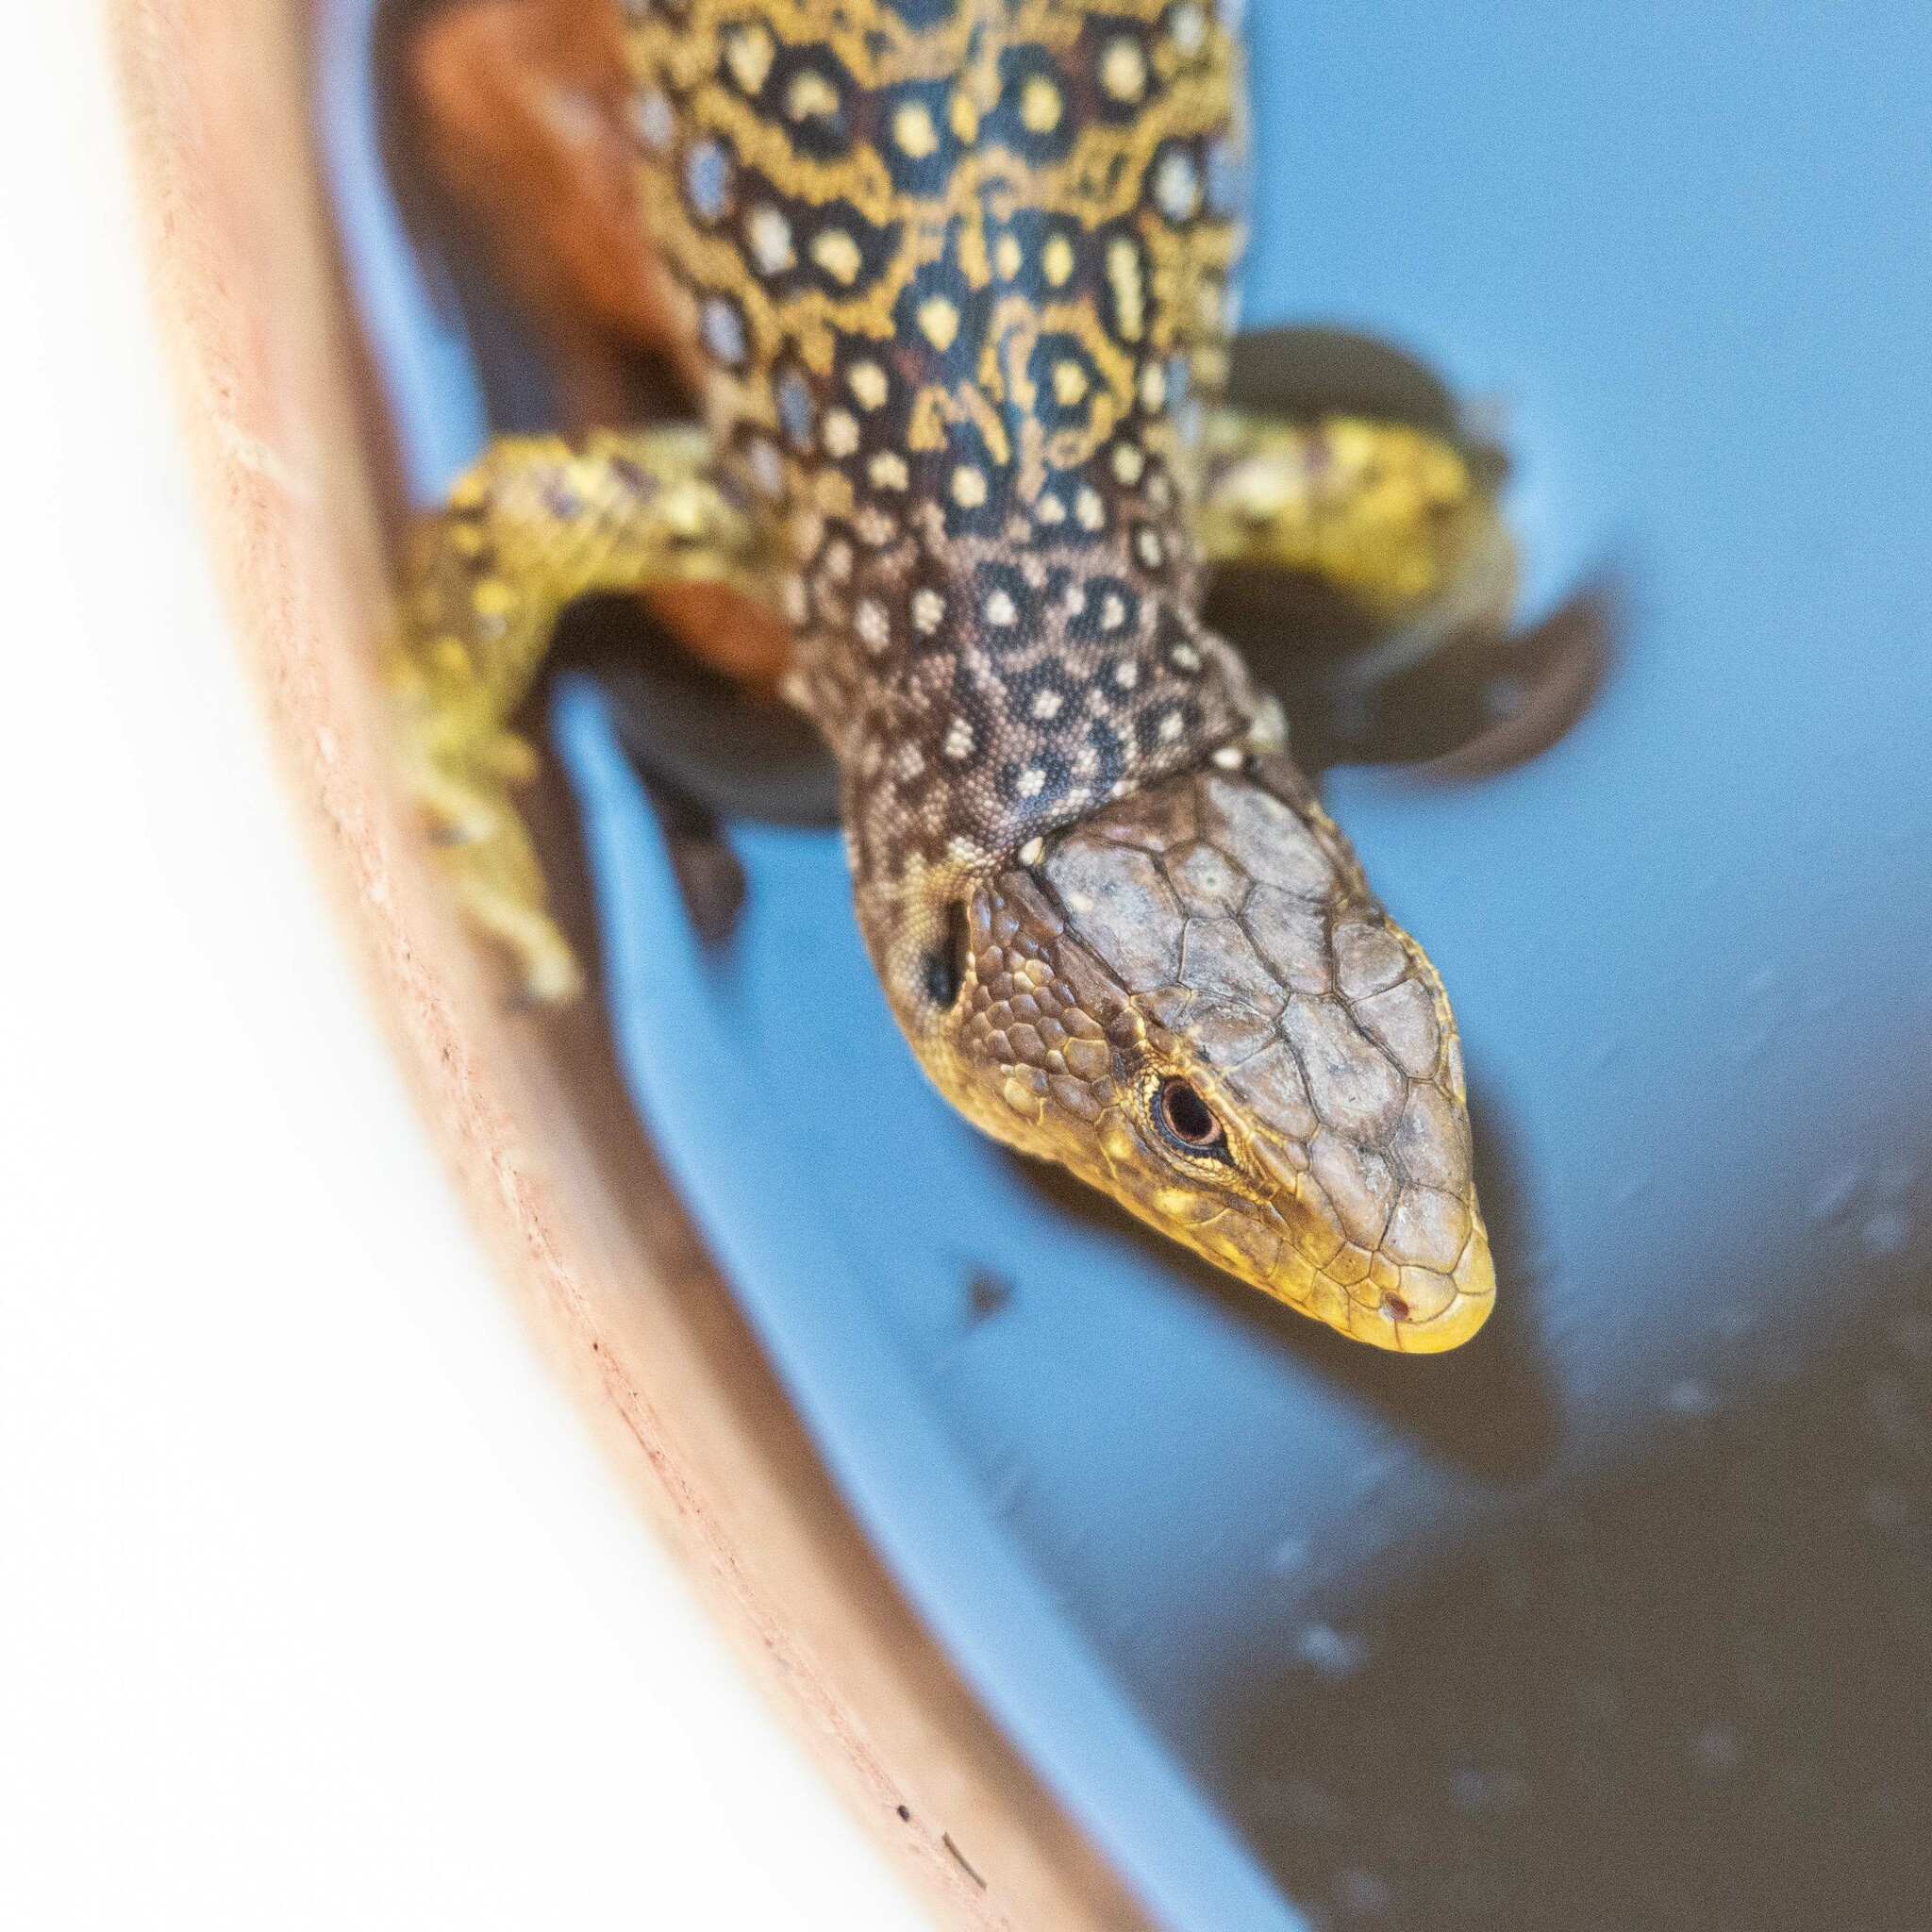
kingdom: Animalia
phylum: Chordata
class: Squamata
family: Lacertidae
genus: Timon
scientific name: Timon lepidus
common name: Ocellated lizard
